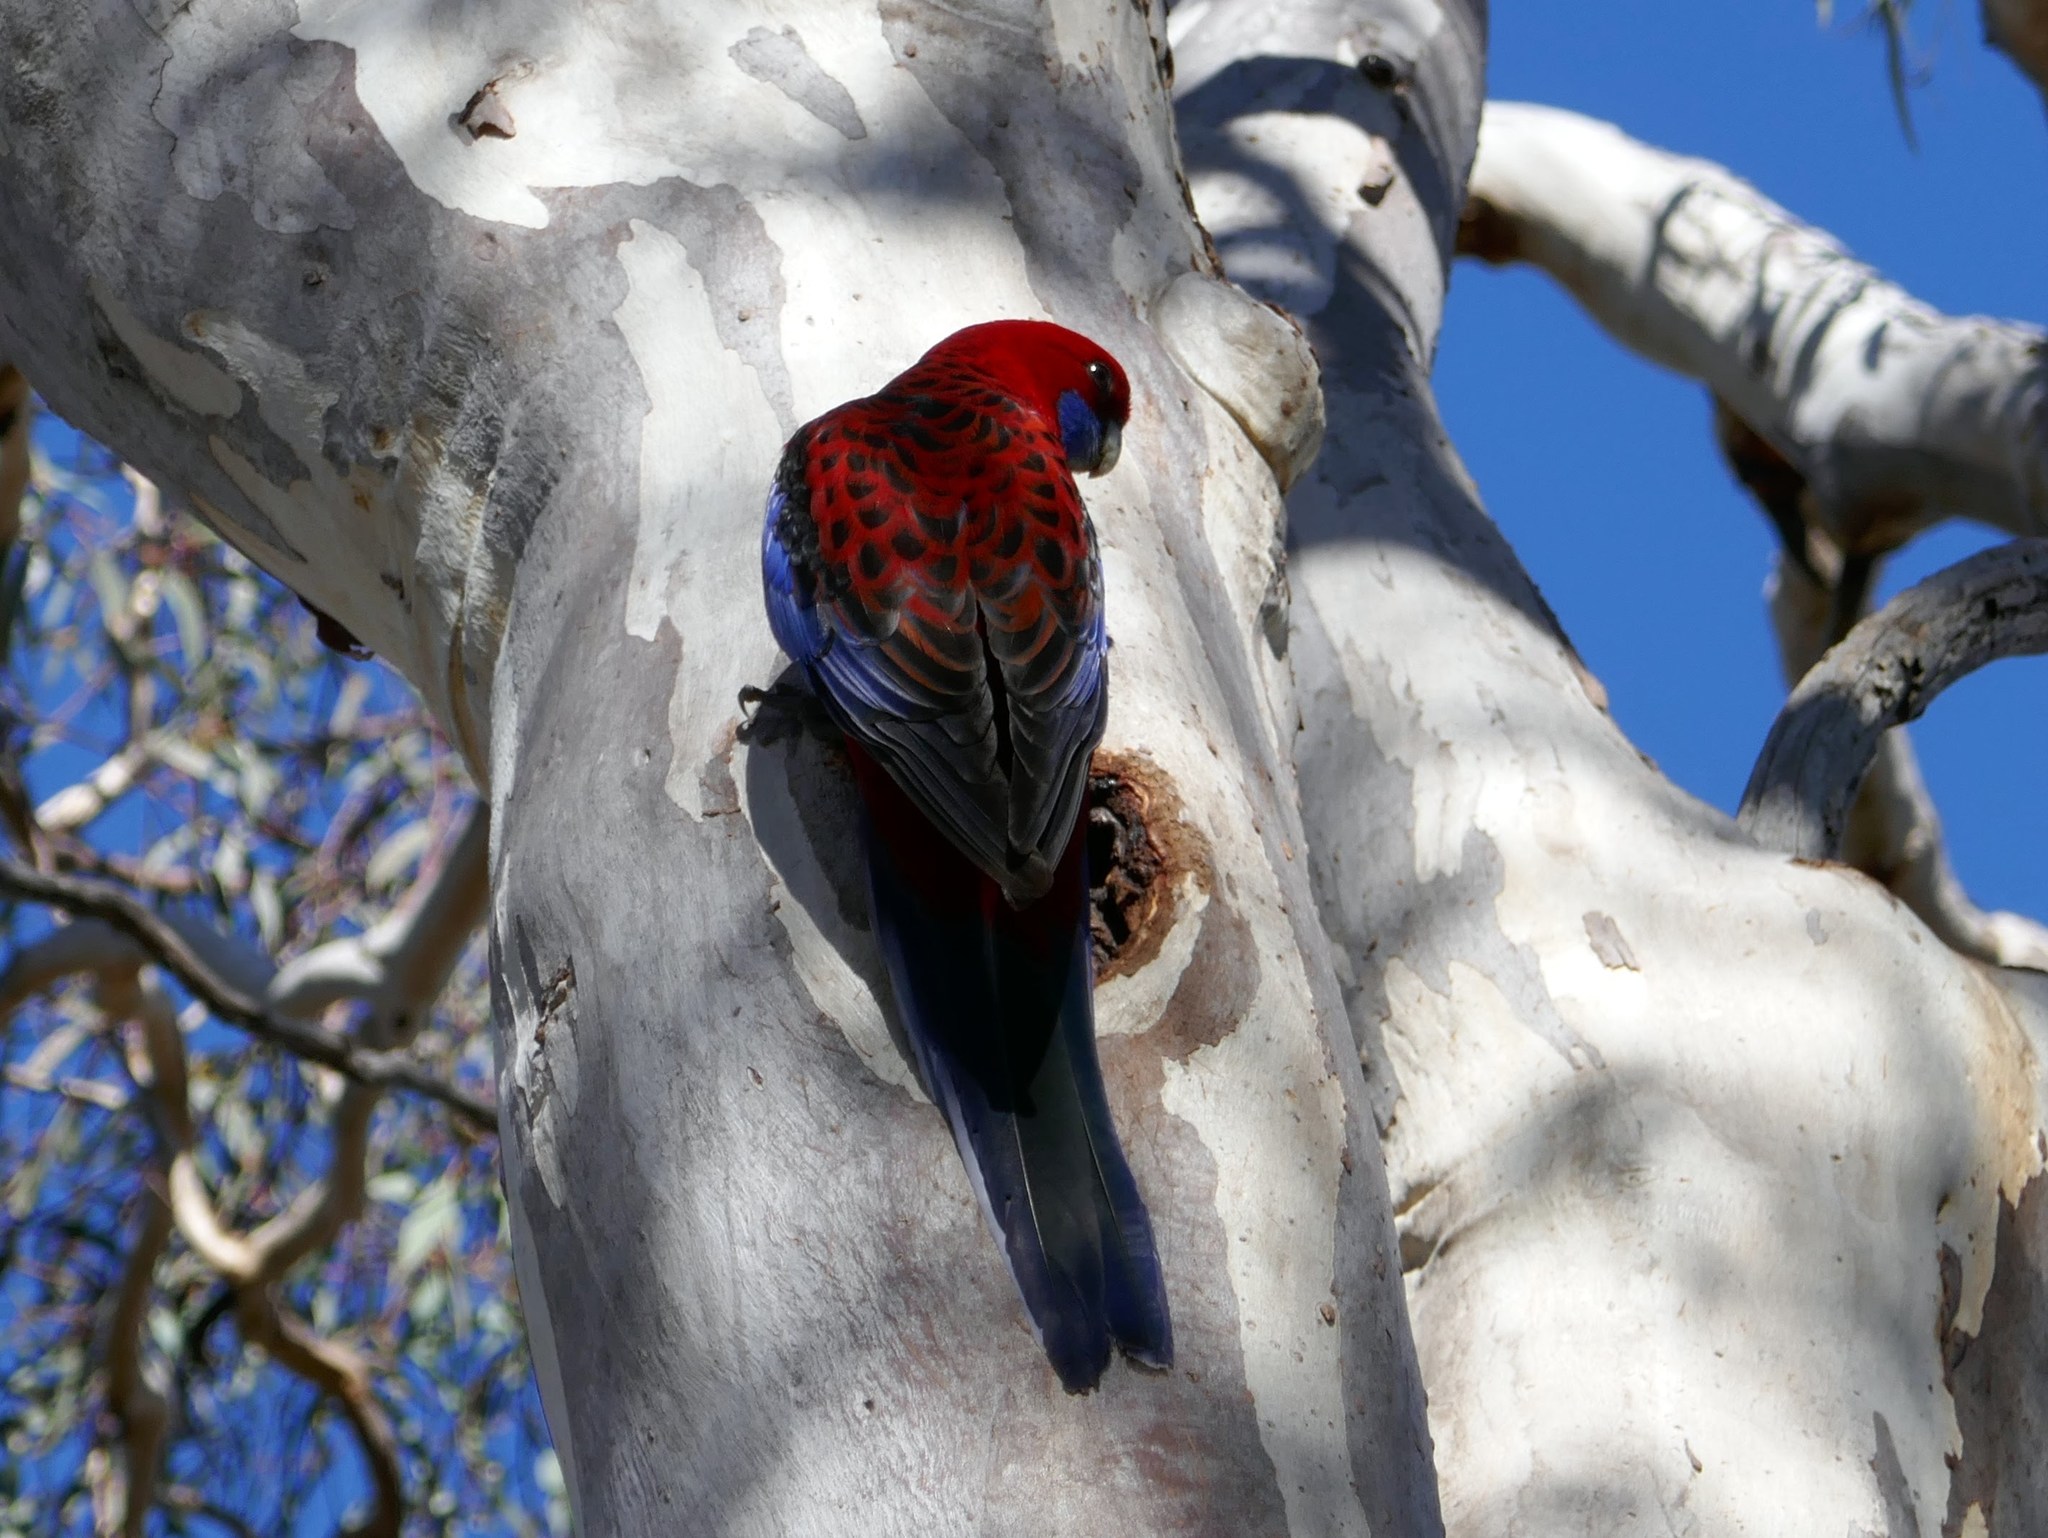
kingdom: Animalia
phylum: Chordata
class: Aves
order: Psittaciformes
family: Psittacidae
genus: Platycercus
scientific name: Platycercus elegans
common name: Crimson rosella
